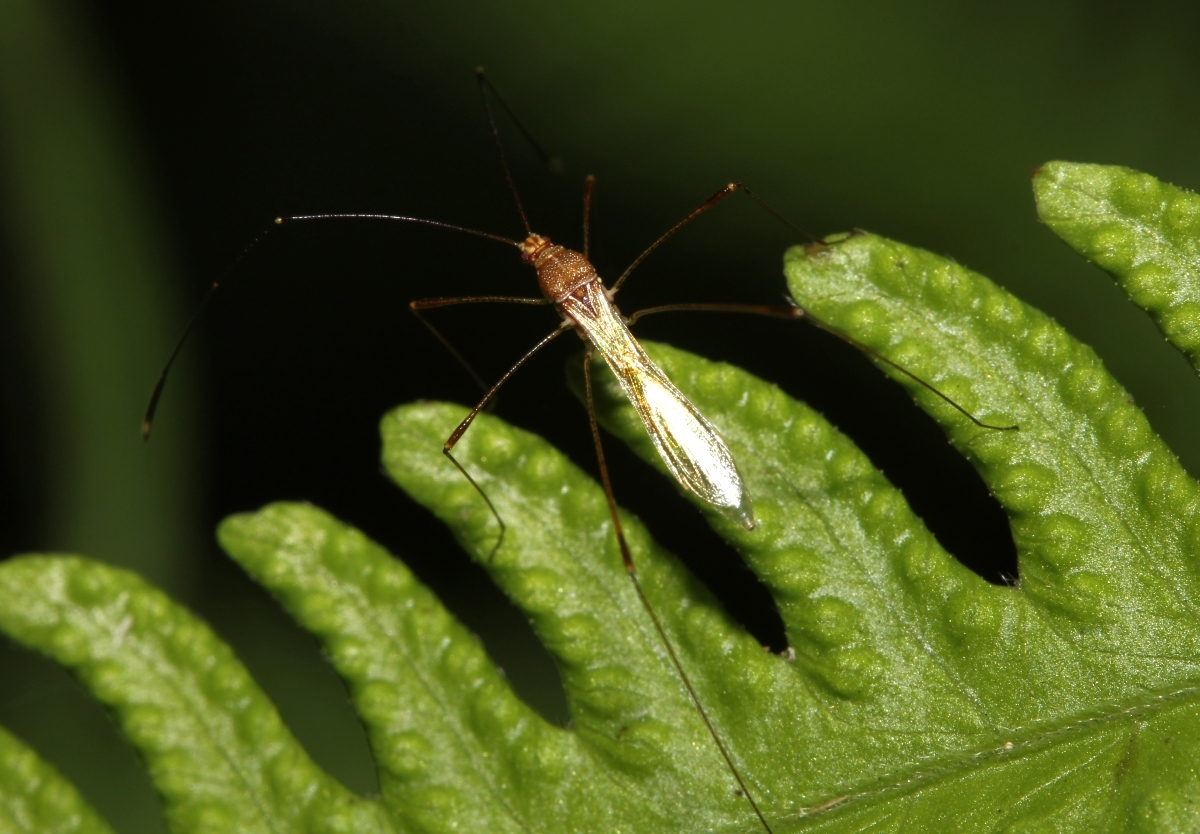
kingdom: Animalia
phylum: Arthropoda
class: Insecta
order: Hemiptera
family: Berytidae
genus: Jalysus
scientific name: Jalysus
